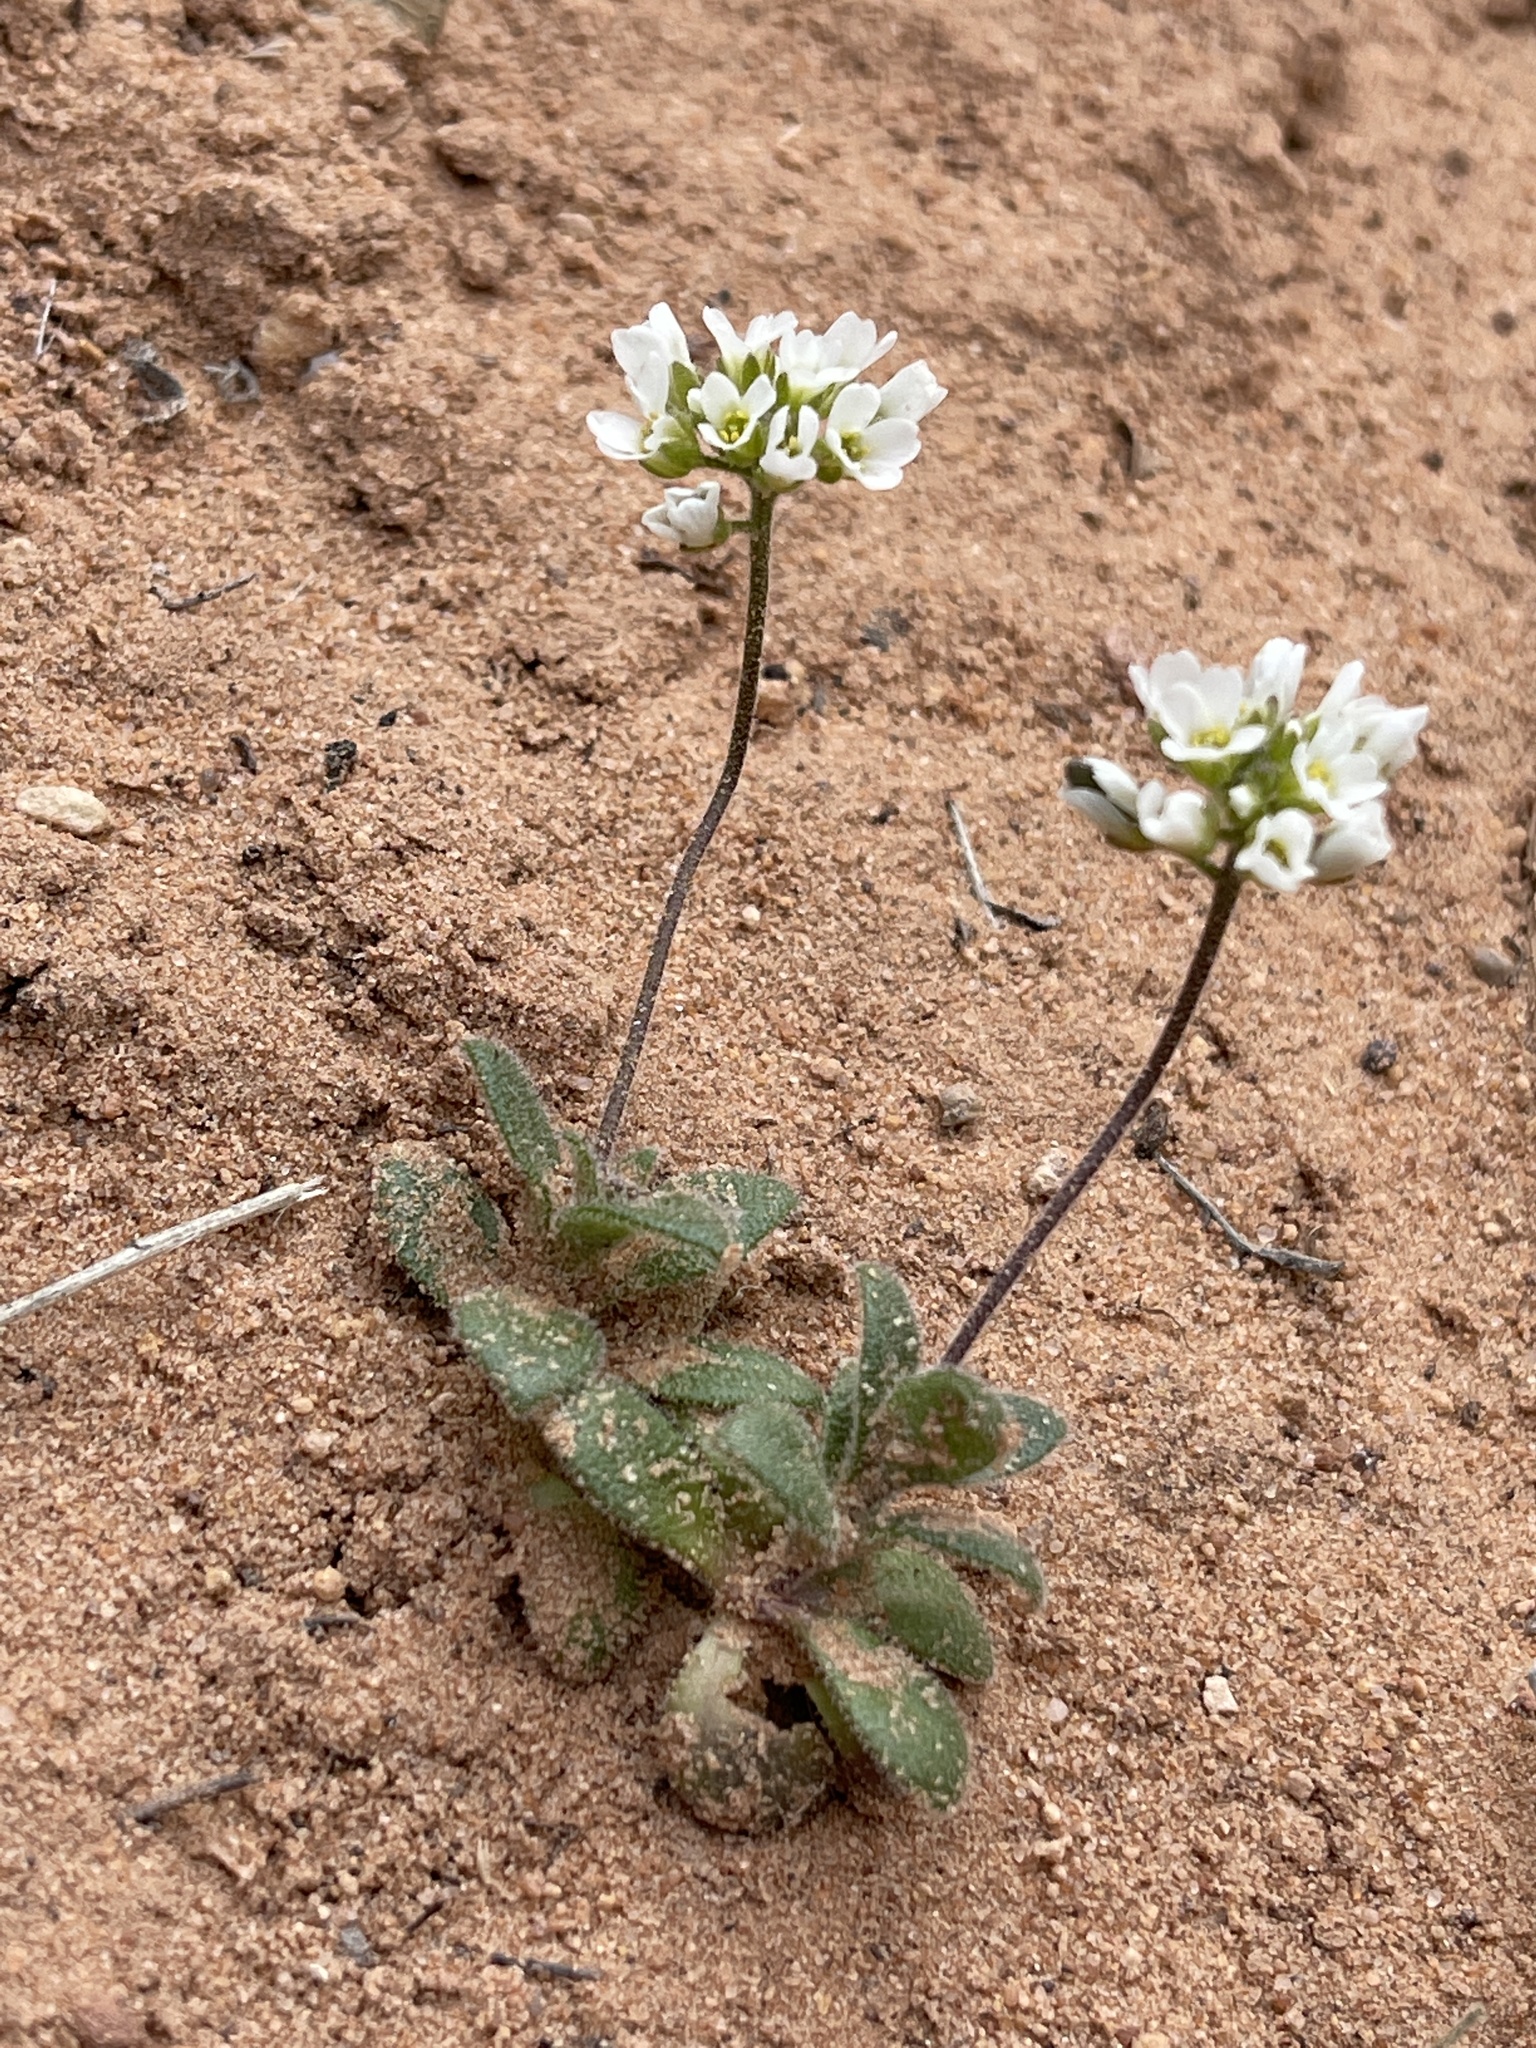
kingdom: Plantae
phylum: Tracheophyta
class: Magnoliopsida
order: Brassicales
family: Brassicaceae
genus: Tomostima
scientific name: Tomostima cuneifolia
